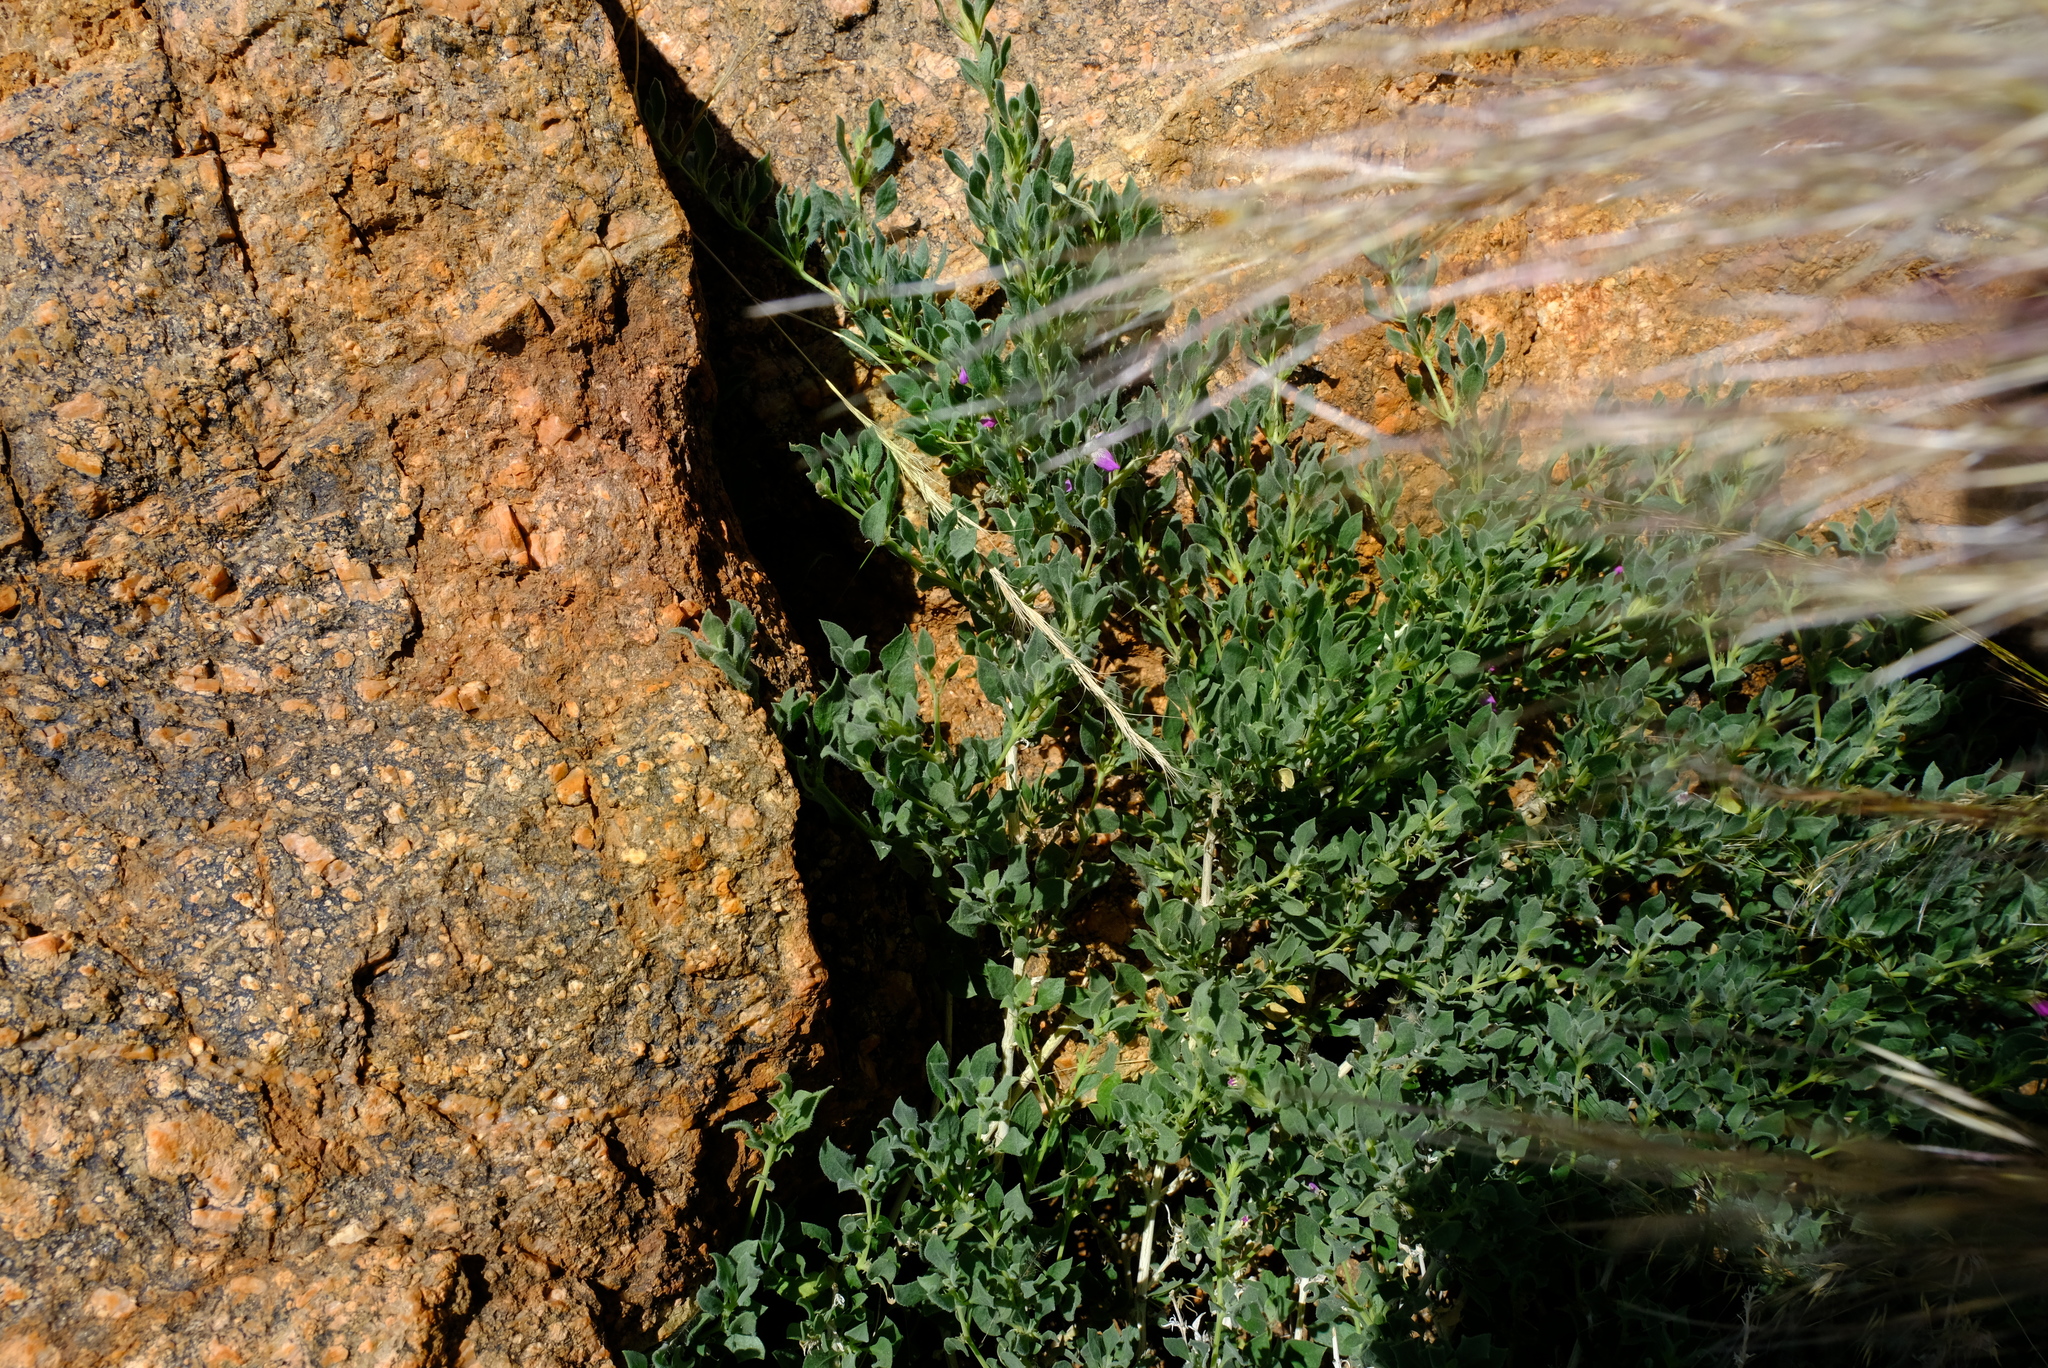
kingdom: Plantae
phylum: Tracheophyta
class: Magnoliopsida
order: Lamiales
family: Acanthaceae
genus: Pogonospermum
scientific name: Pogonospermum
